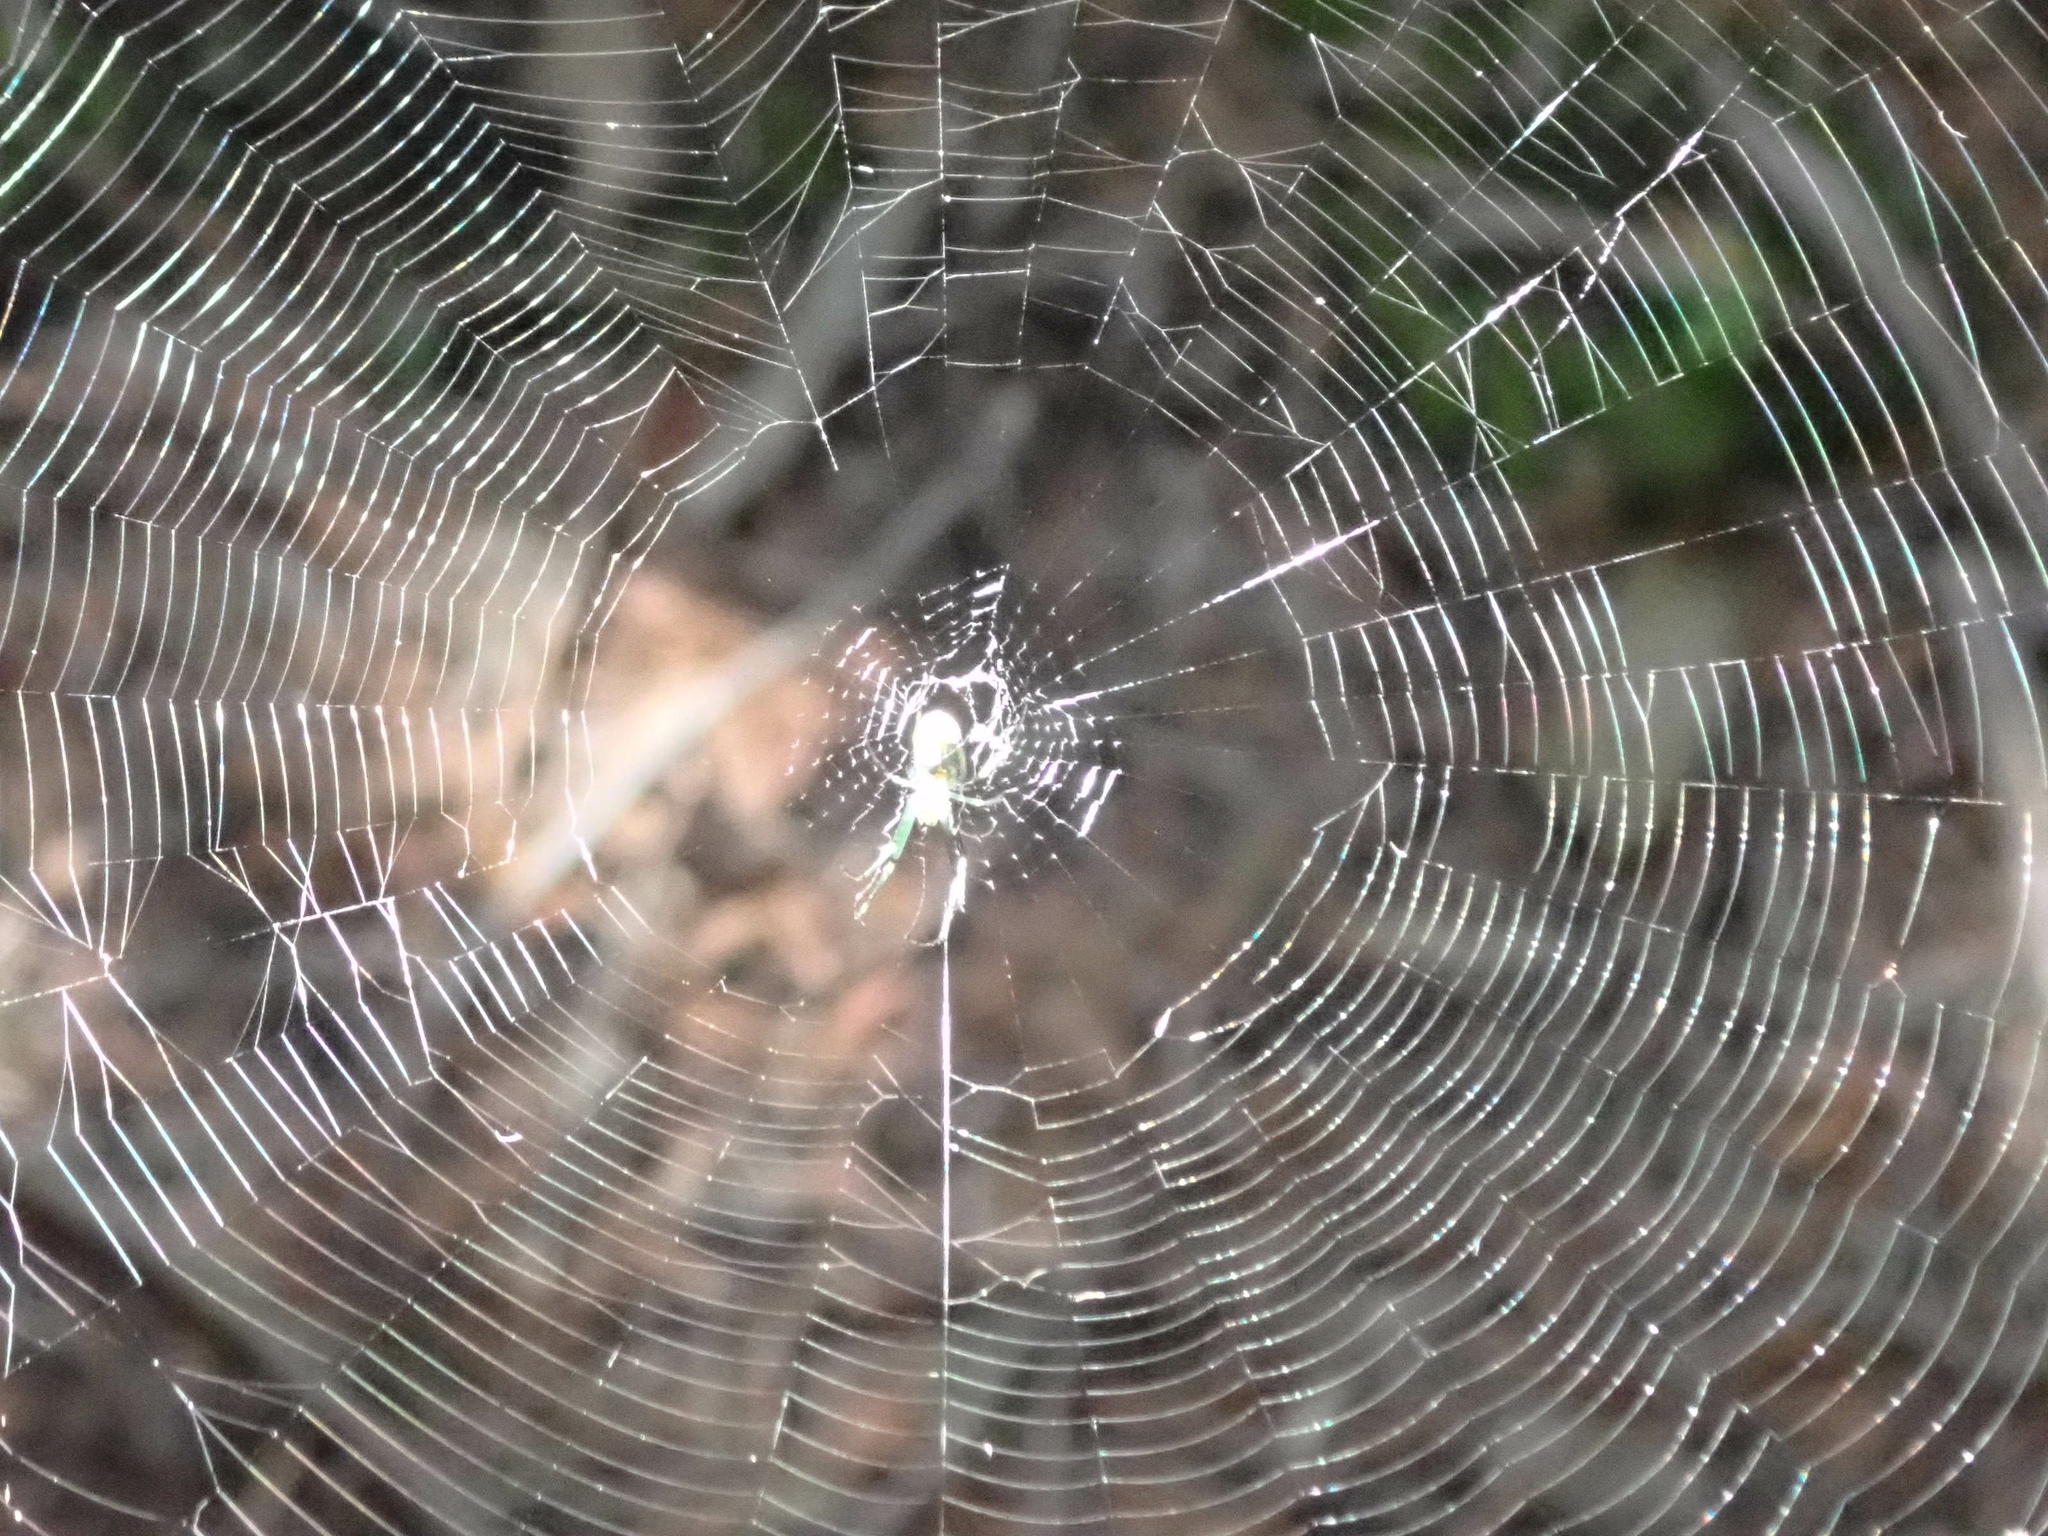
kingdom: Animalia
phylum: Arthropoda
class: Arachnida
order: Araneae
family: Tetragnathidae
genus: Leucauge
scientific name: Leucauge venusta
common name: Longjawed orb weavers
